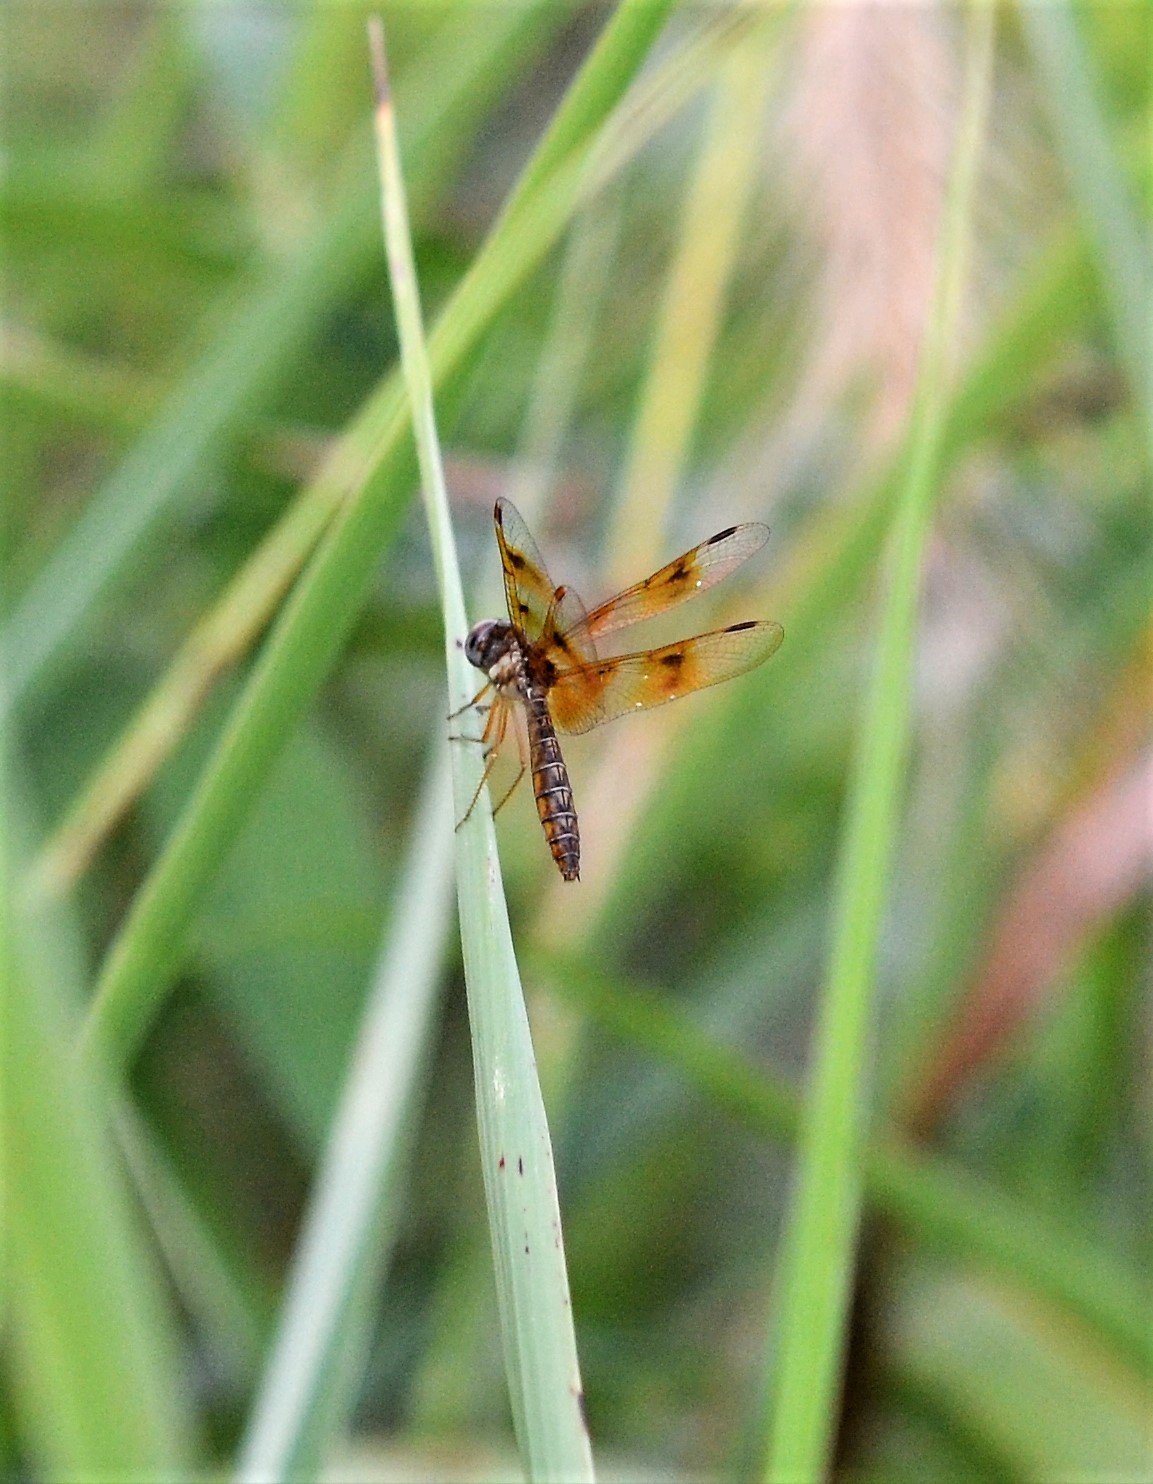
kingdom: Animalia
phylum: Arthropoda
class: Insecta
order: Odonata
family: Libellulidae
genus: Perithemis
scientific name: Perithemis tenera
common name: Eastern amberwing
